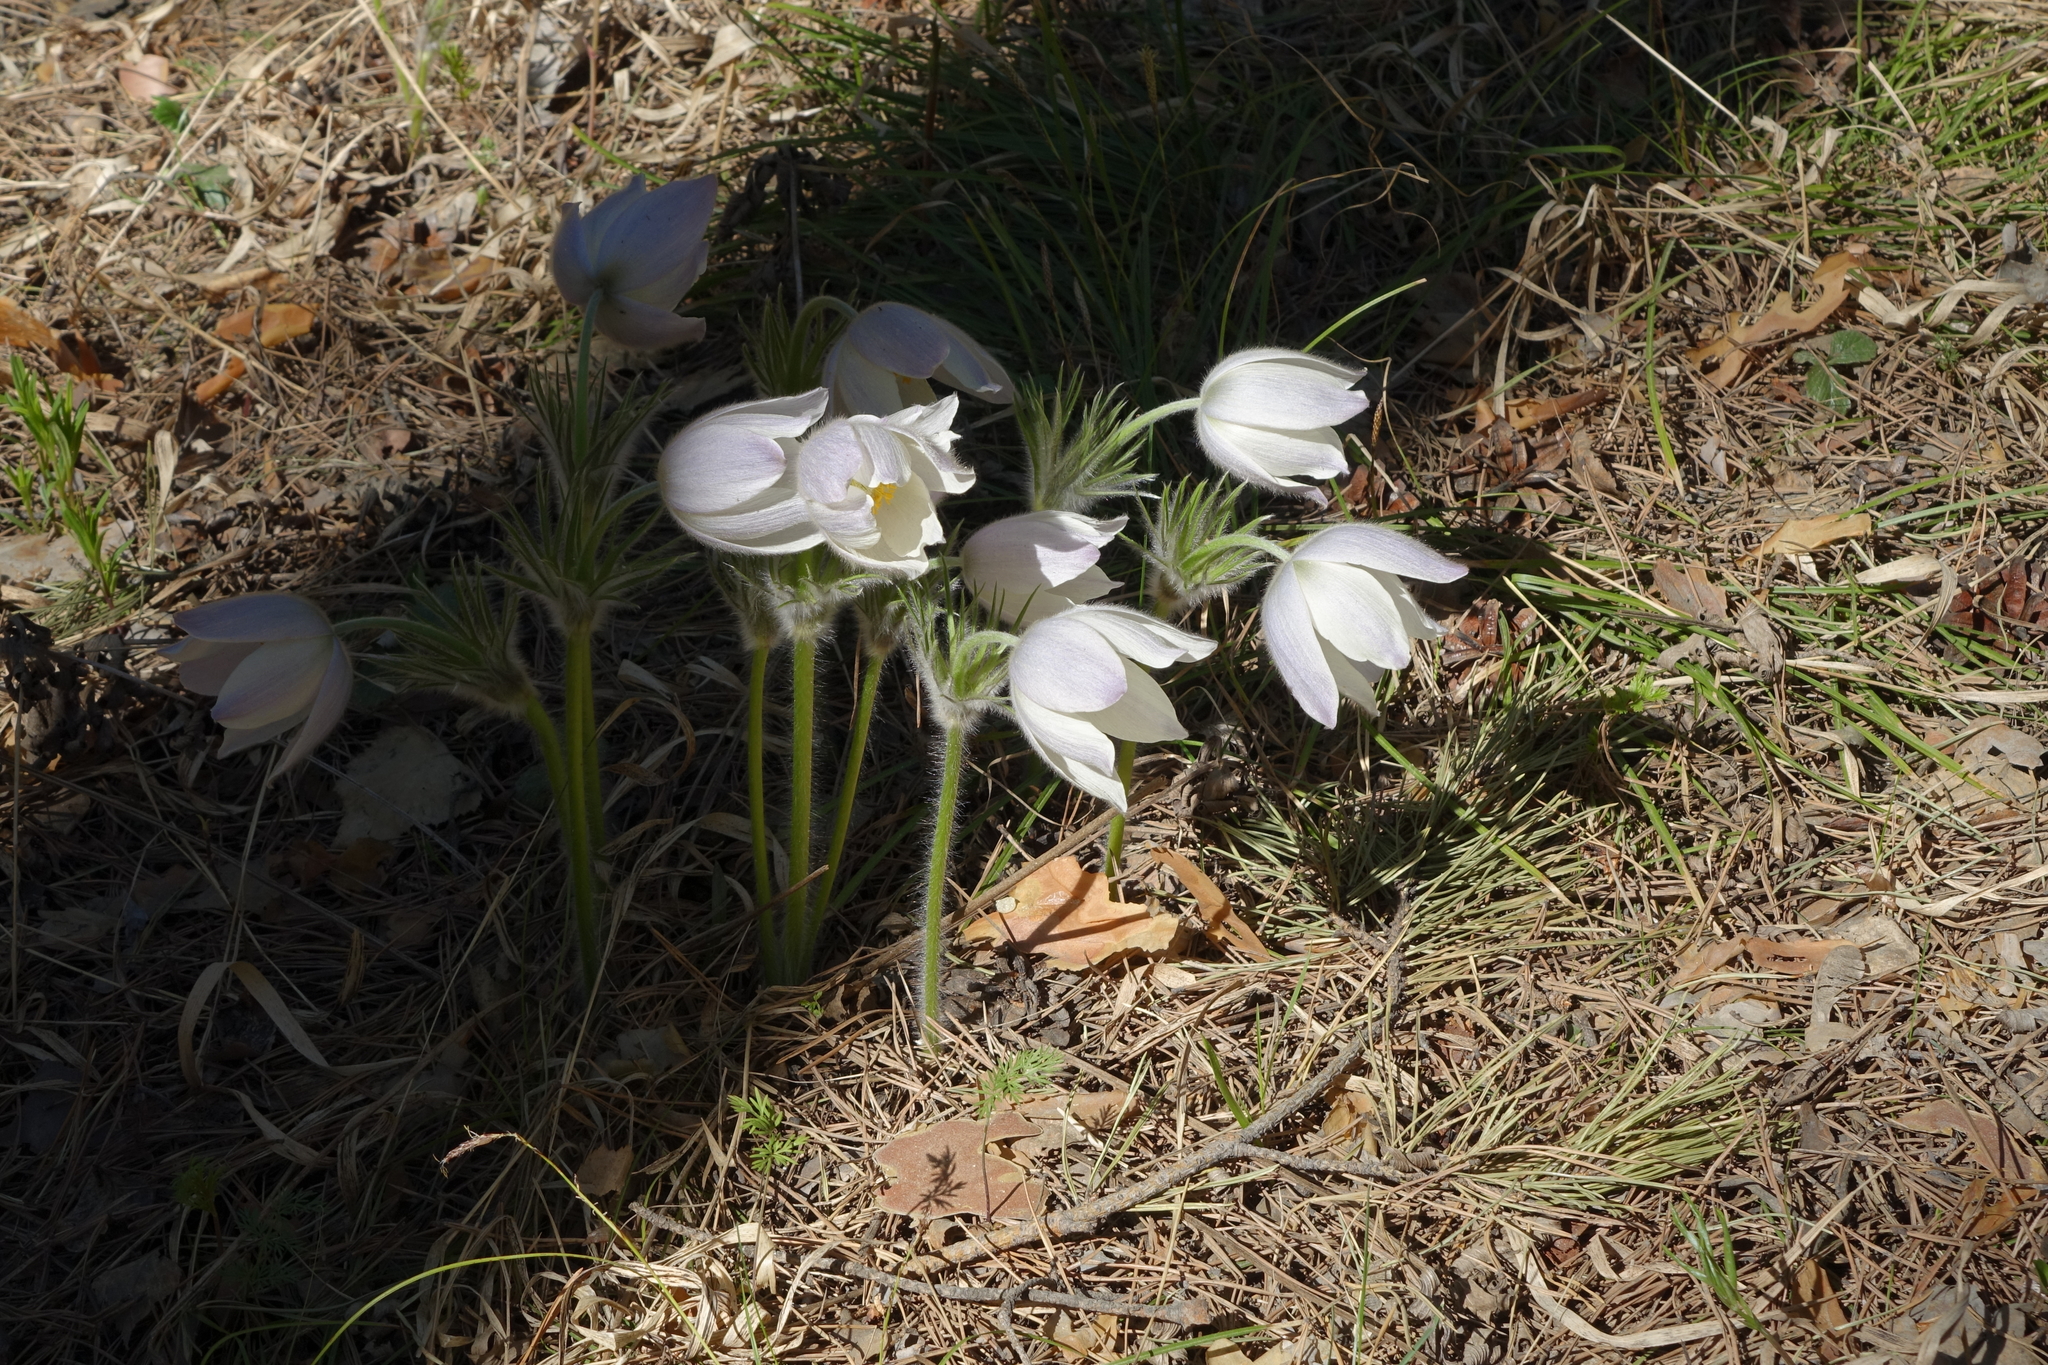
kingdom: Plantae
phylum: Tracheophyta
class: Magnoliopsida
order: Ranunculales
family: Ranunculaceae
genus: Pulsatilla
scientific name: Pulsatilla patens
